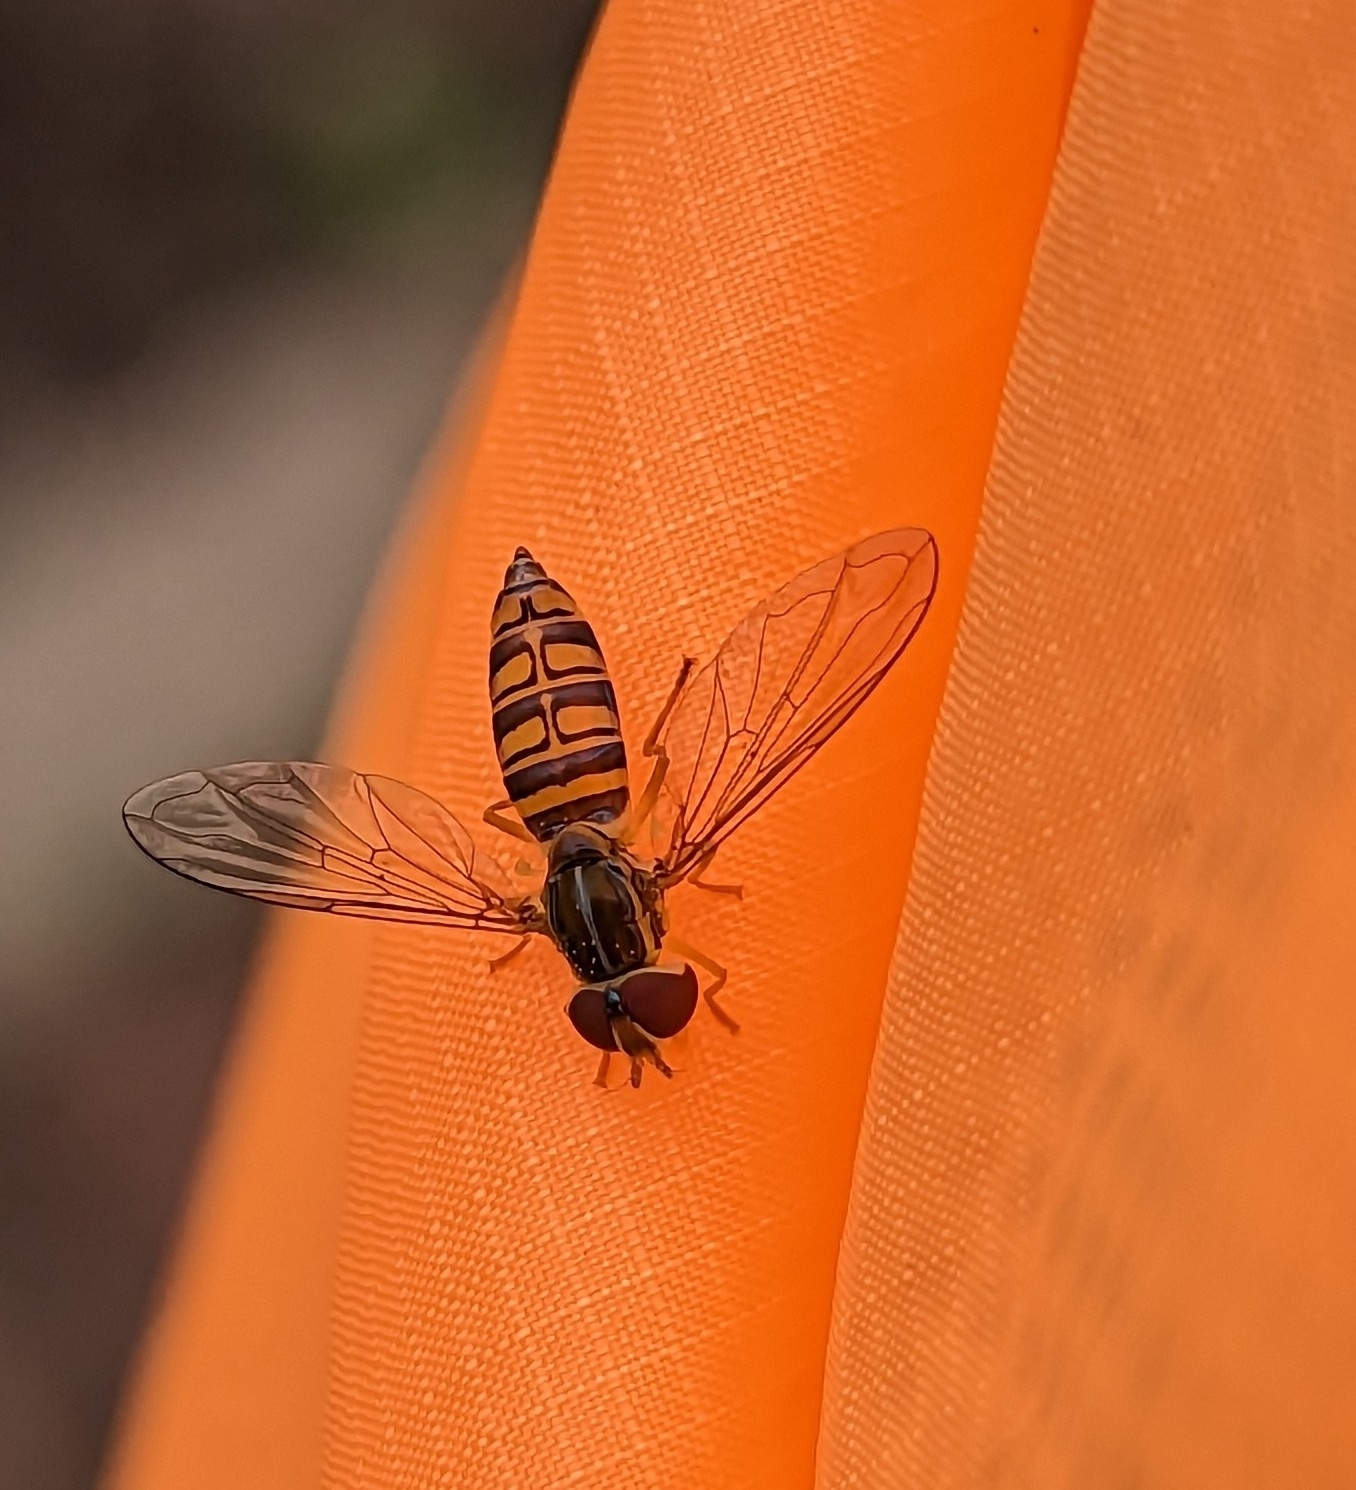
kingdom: Animalia
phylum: Arthropoda
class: Insecta
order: Diptera
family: Syrphidae
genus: Toxomerus
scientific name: Toxomerus politus
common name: Maize calligrapher
